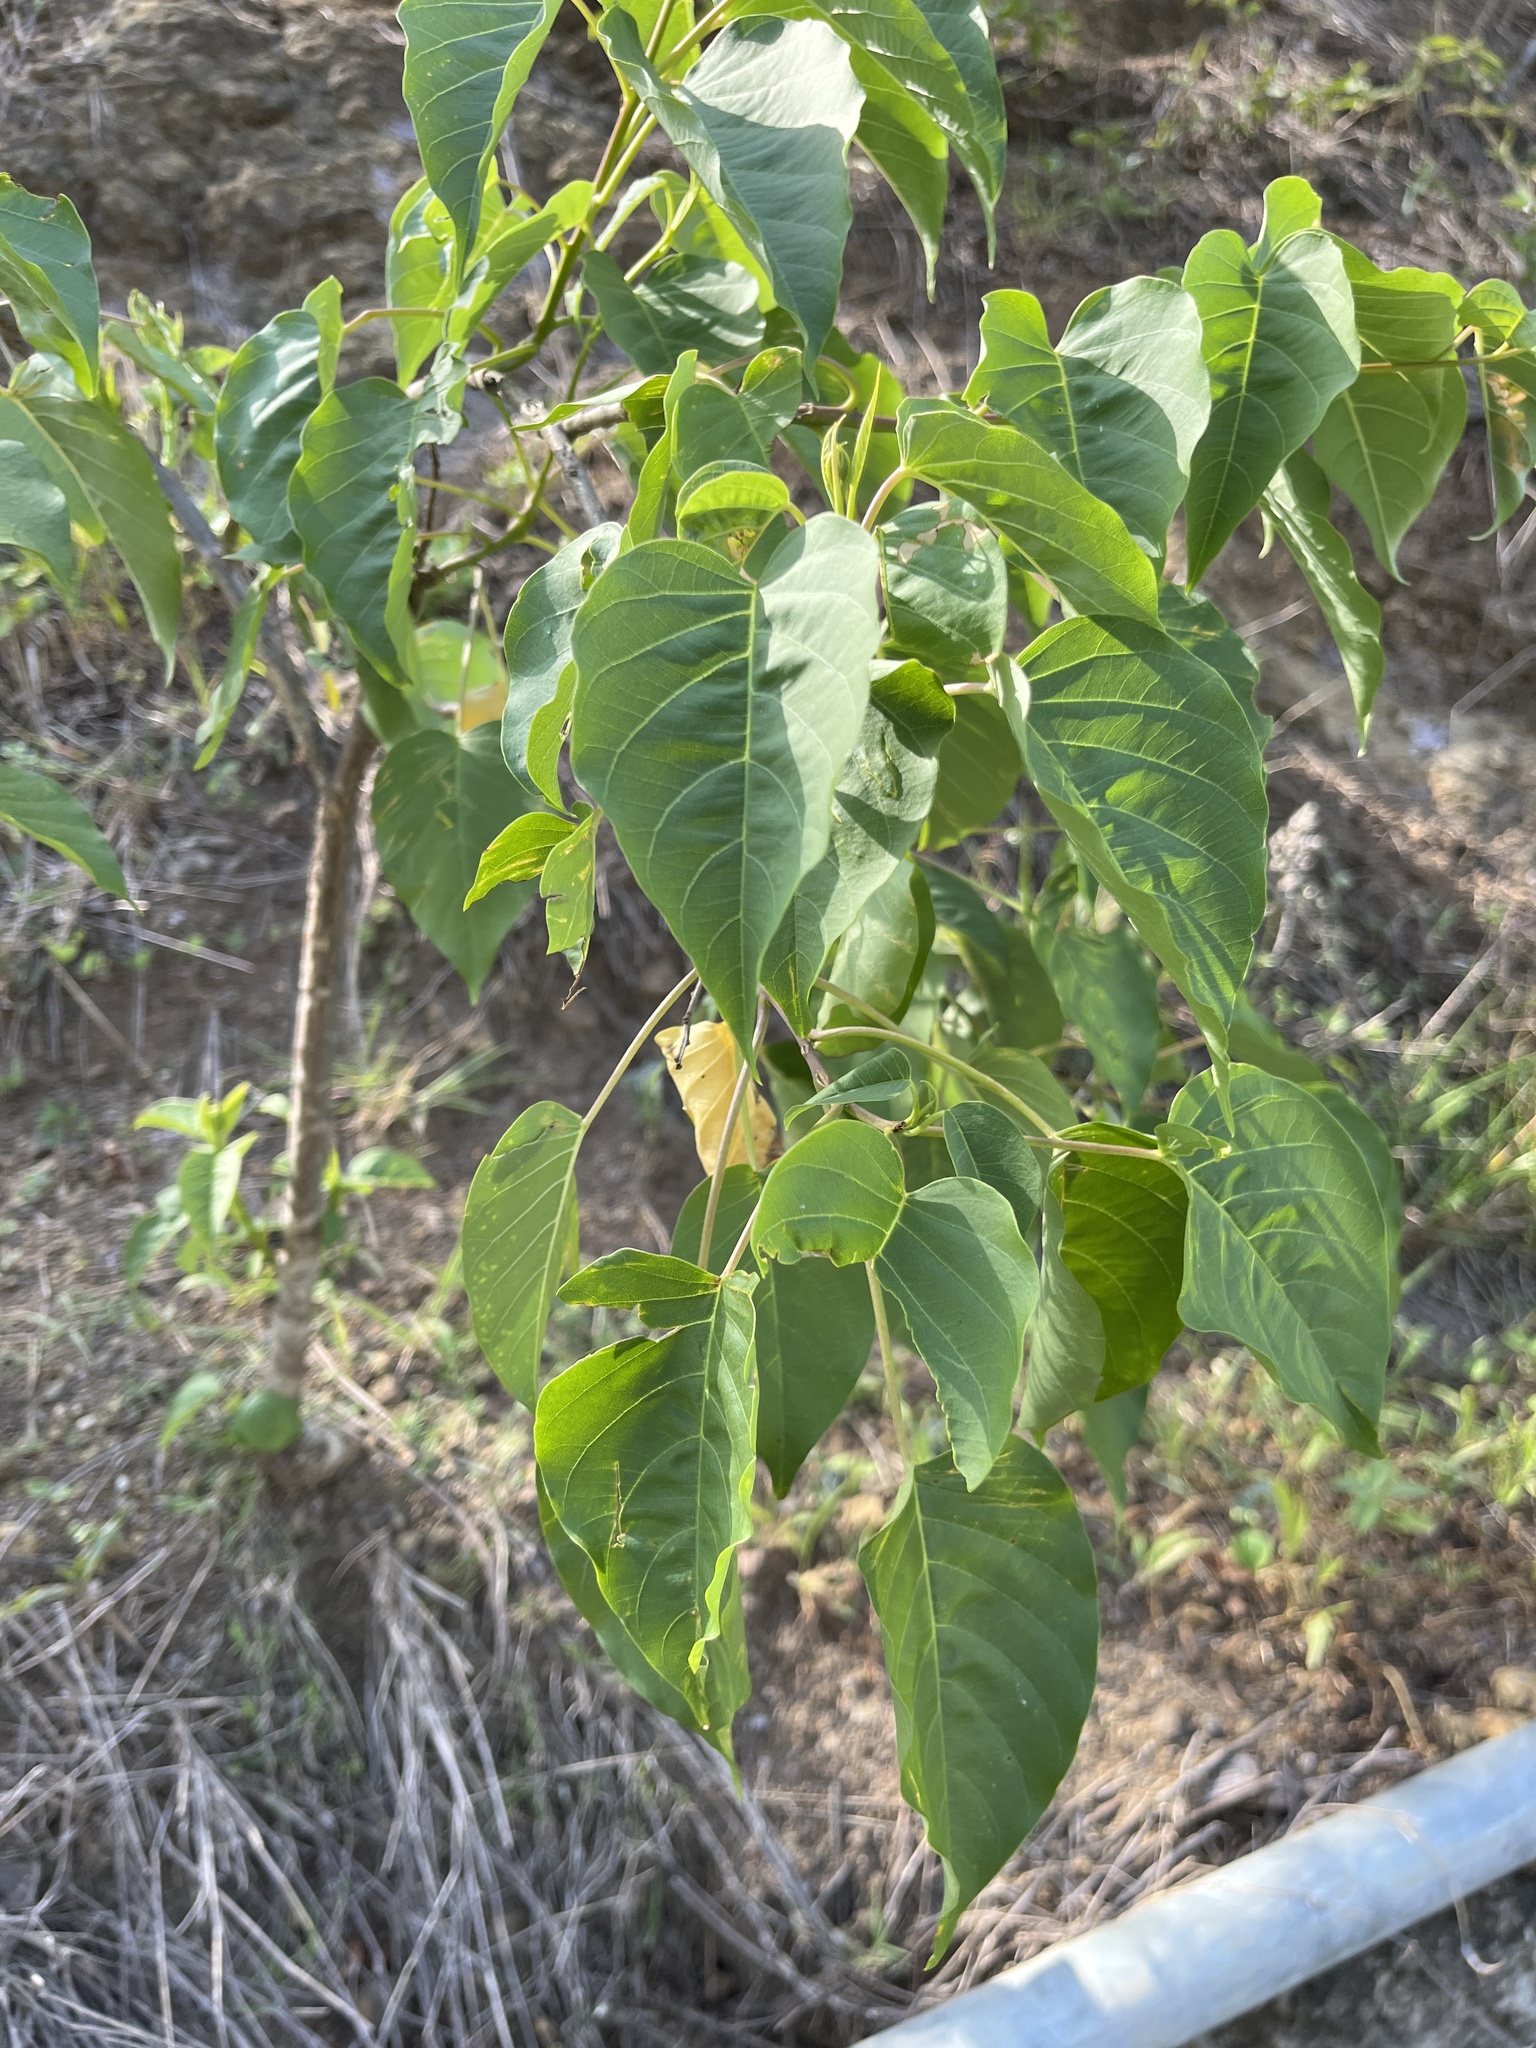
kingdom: Plantae
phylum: Tracheophyta
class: Magnoliopsida
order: Solanales
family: Convolvulaceae
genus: Ipomoea
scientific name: Ipomoea pauciflora
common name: Tree morningglory
